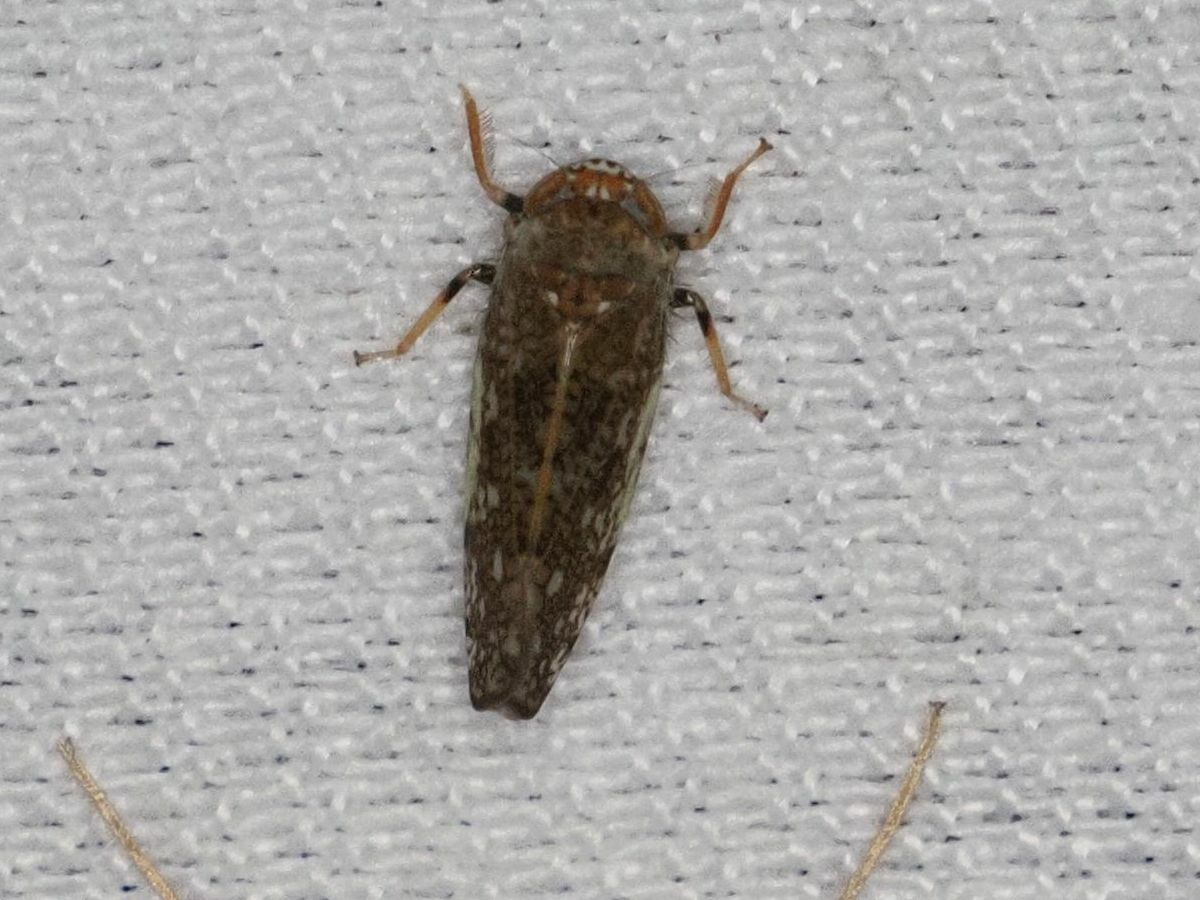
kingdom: Animalia
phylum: Arthropoda
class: Insecta
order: Hemiptera
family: Cicadellidae
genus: Orientus
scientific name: Orientus ishidae
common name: Japanese leafhopper
